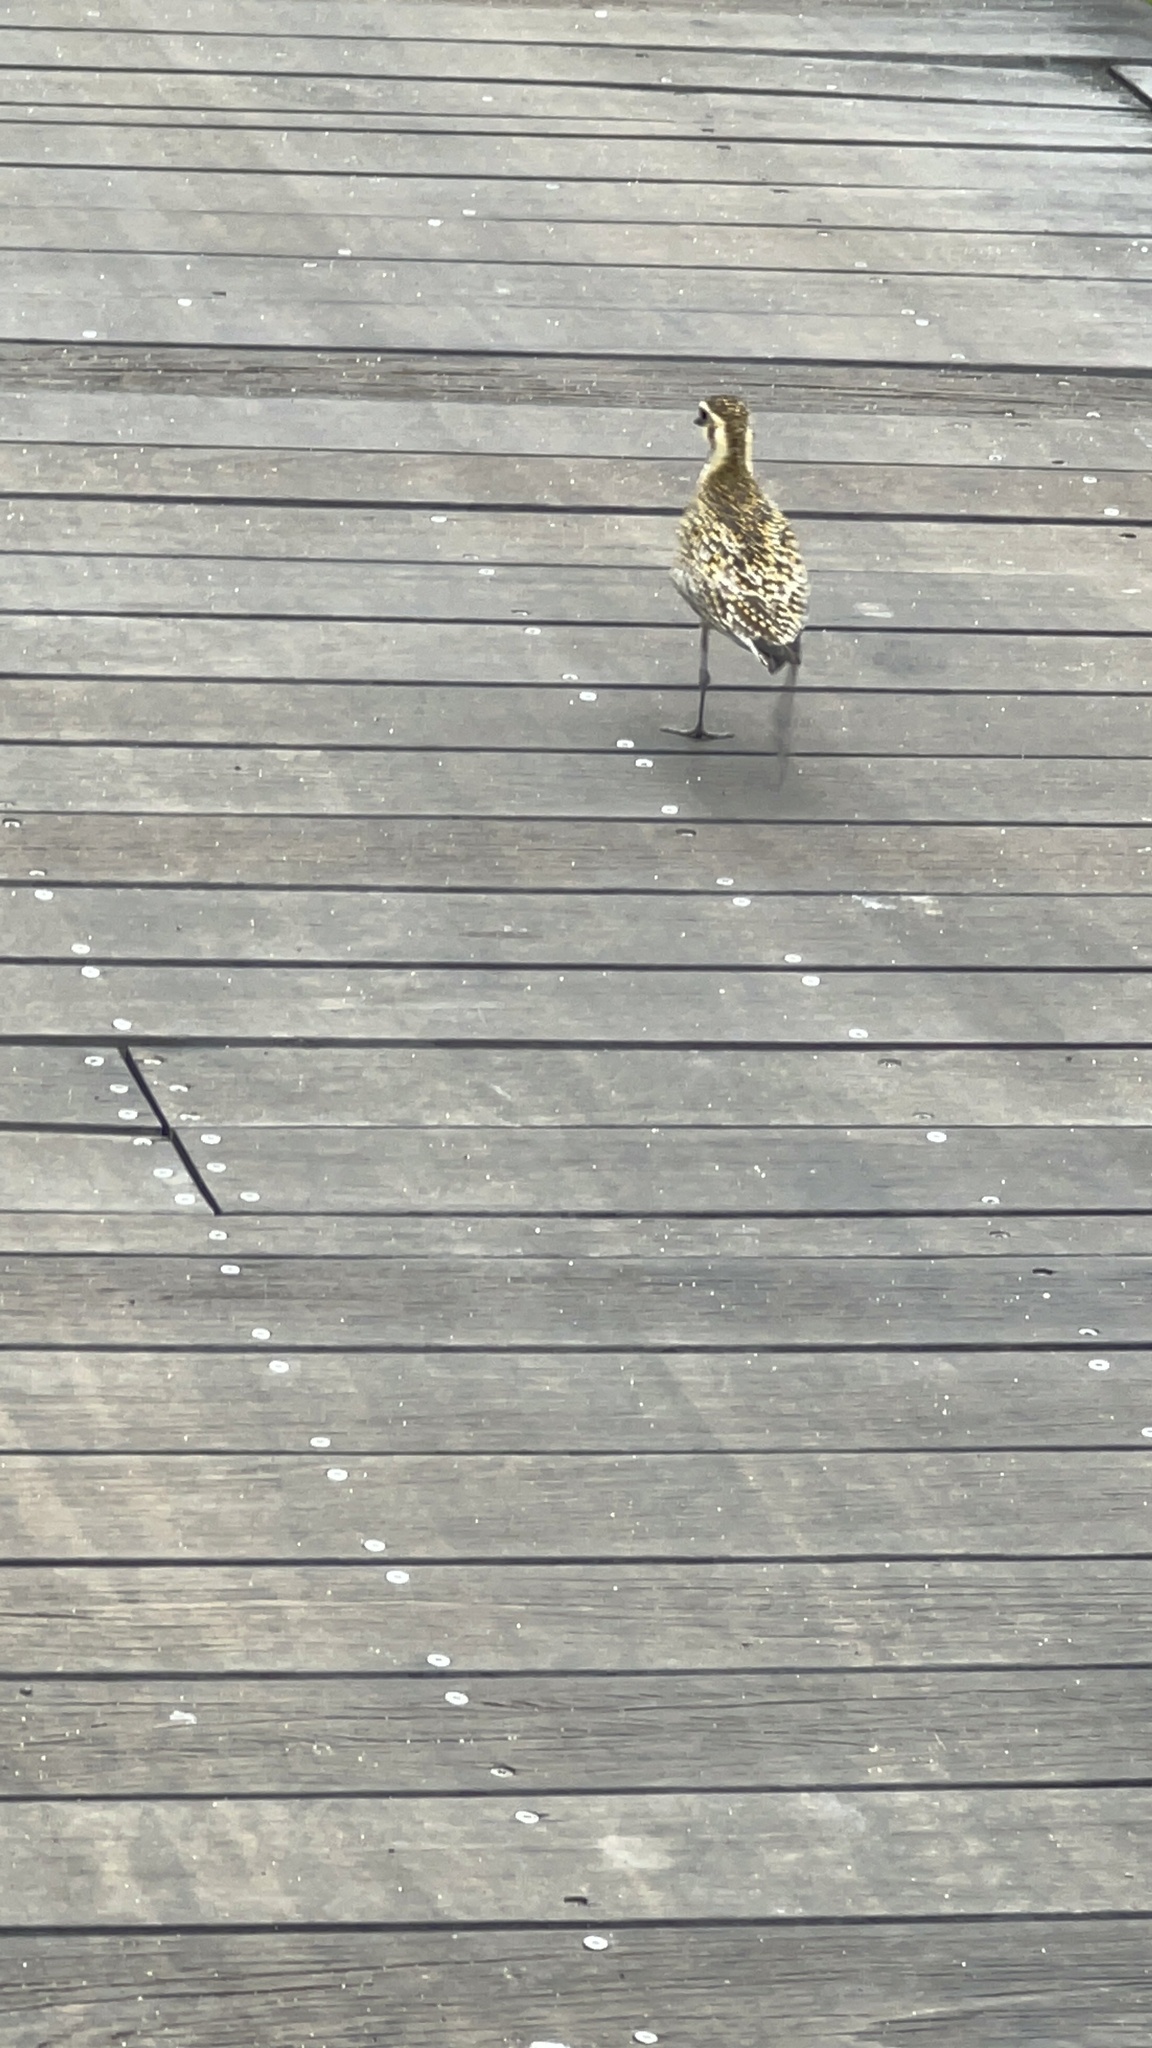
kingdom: Animalia
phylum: Chordata
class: Aves
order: Charadriiformes
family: Charadriidae
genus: Pluvialis
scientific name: Pluvialis fulva
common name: Pacific golden plover
